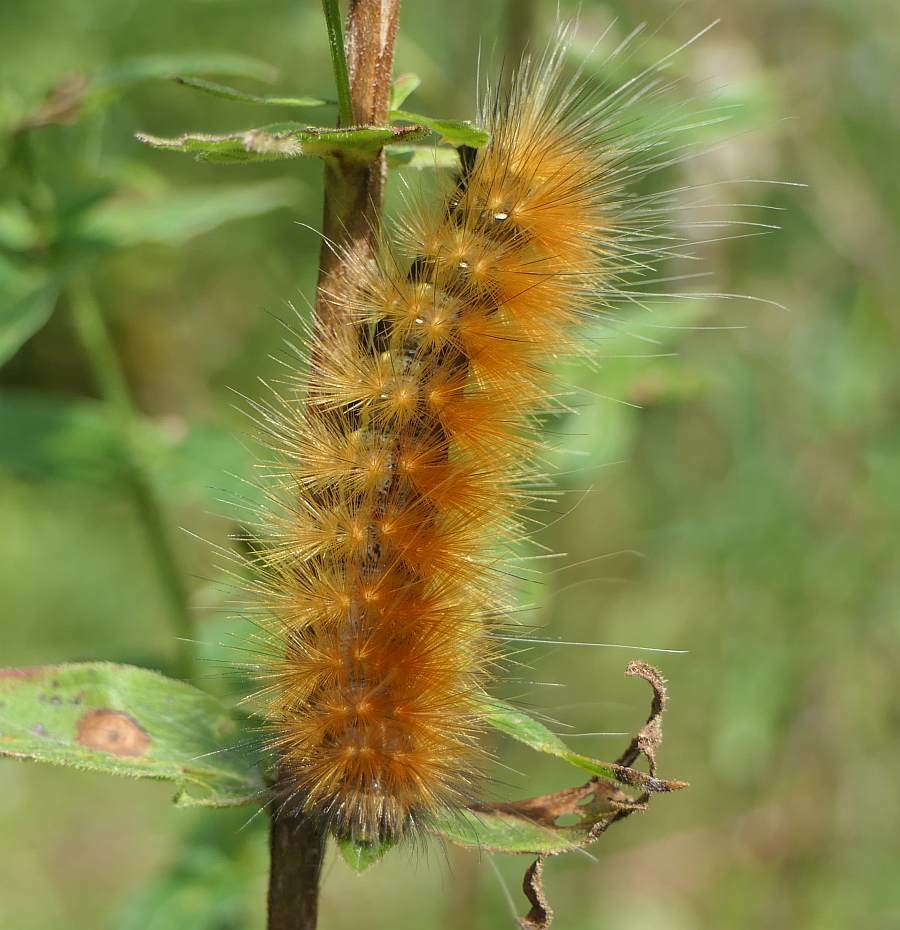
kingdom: Animalia
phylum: Arthropoda
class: Insecta
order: Lepidoptera
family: Erebidae
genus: Spilosoma
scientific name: Spilosoma virginica
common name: Virginia tiger moth
